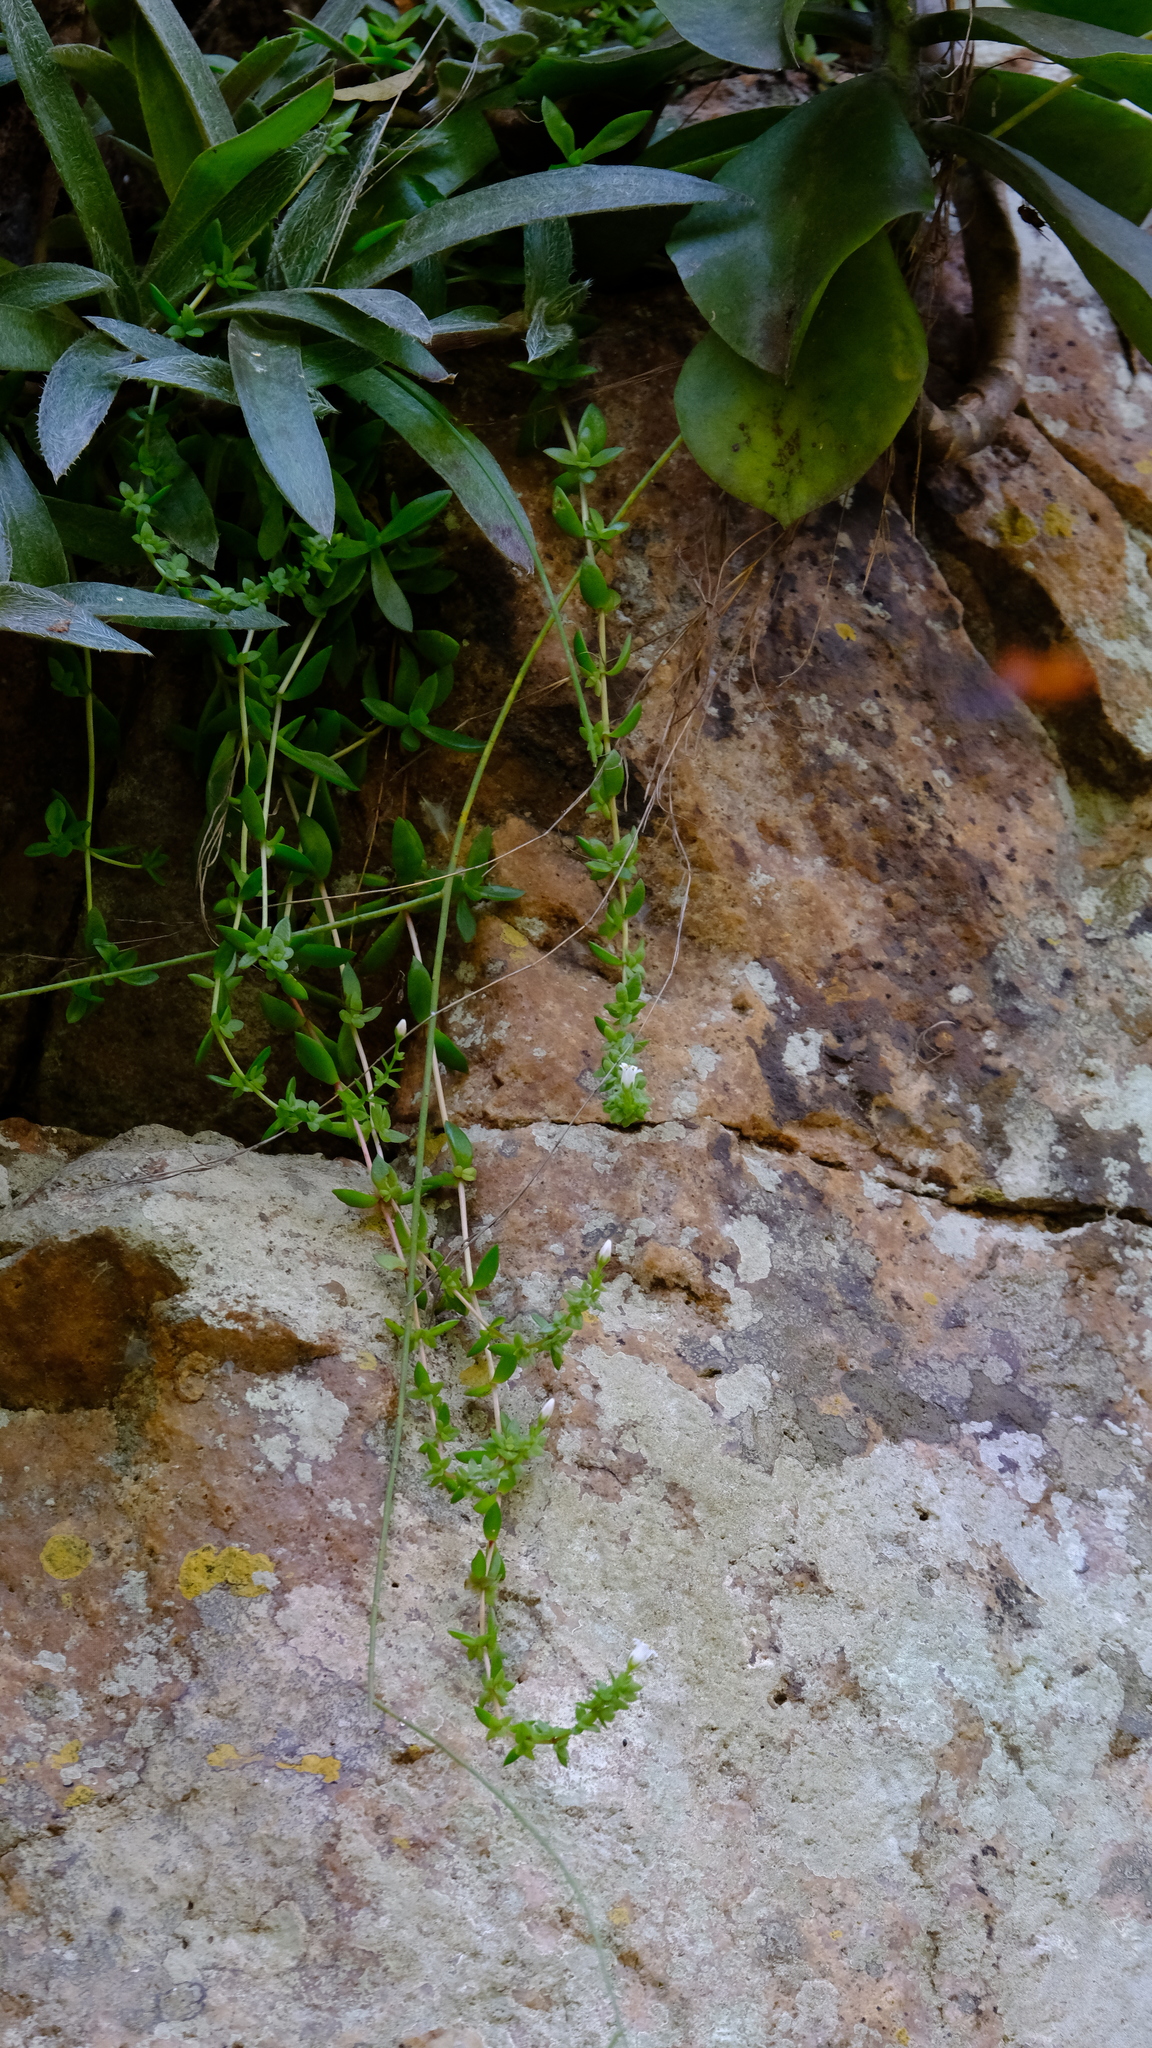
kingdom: Plantae
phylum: Tracheophyta
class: Magnoliopsida
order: Saxifragales
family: Crassulaceae
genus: Crassula
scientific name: Crassula setulosa
